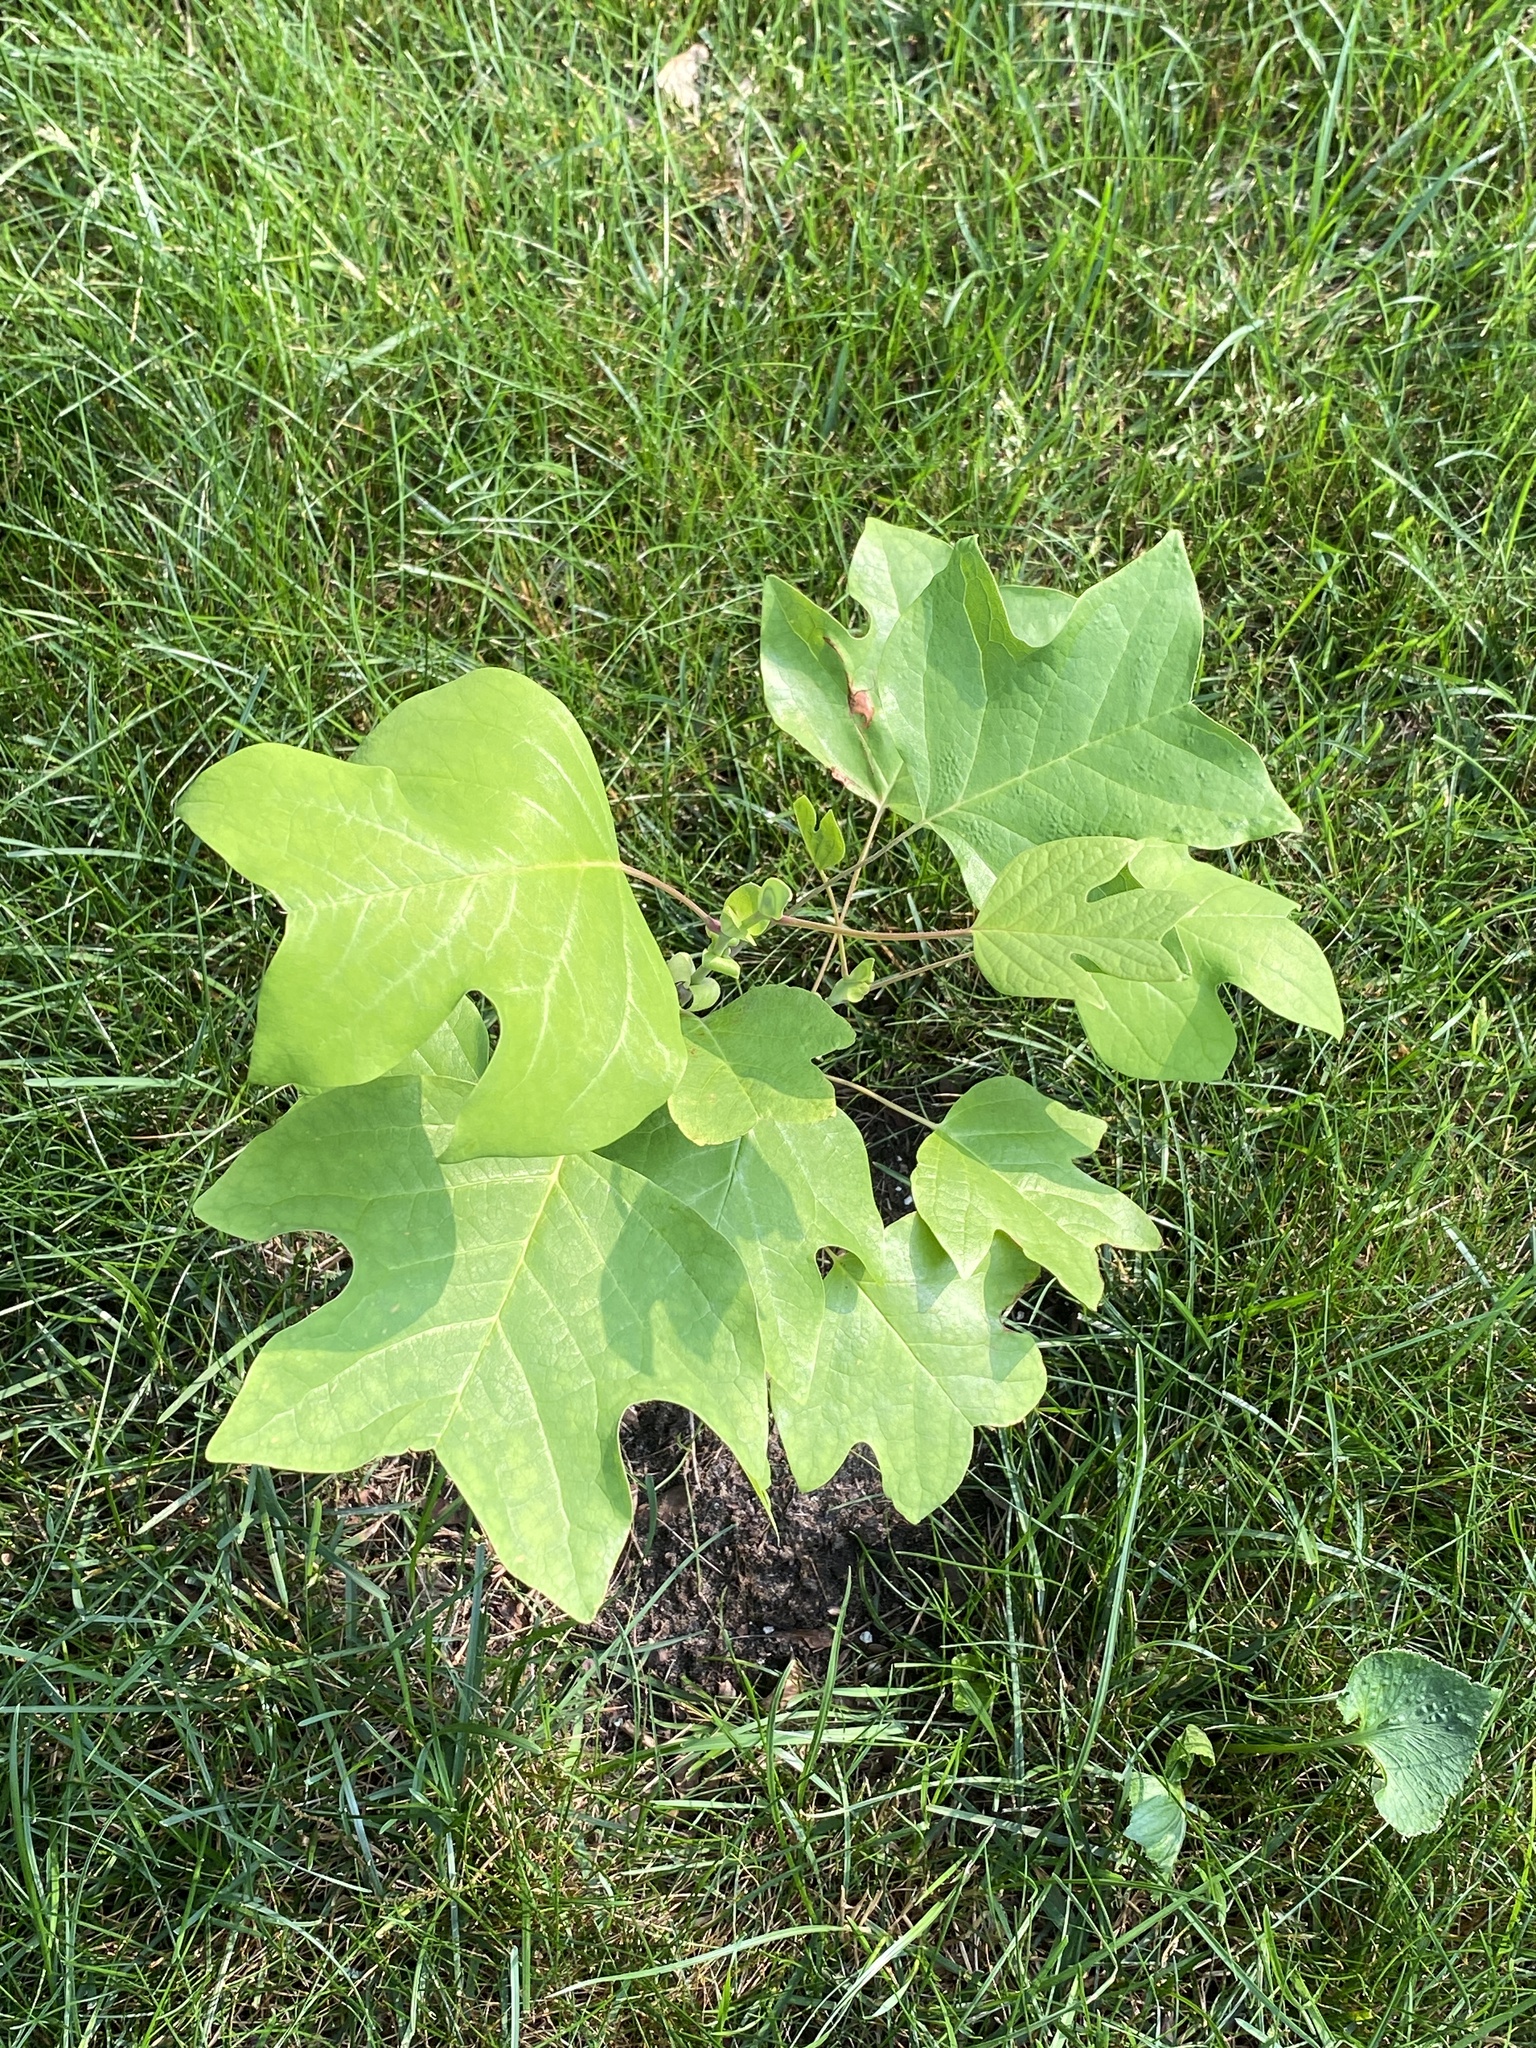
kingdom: Plantae
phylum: Tracheophyta
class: Magnoliopsida
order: Magnoliales
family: Magnoliaceae
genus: Liriodendron
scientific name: Liriodendron tulipifera
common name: Tulip tree
